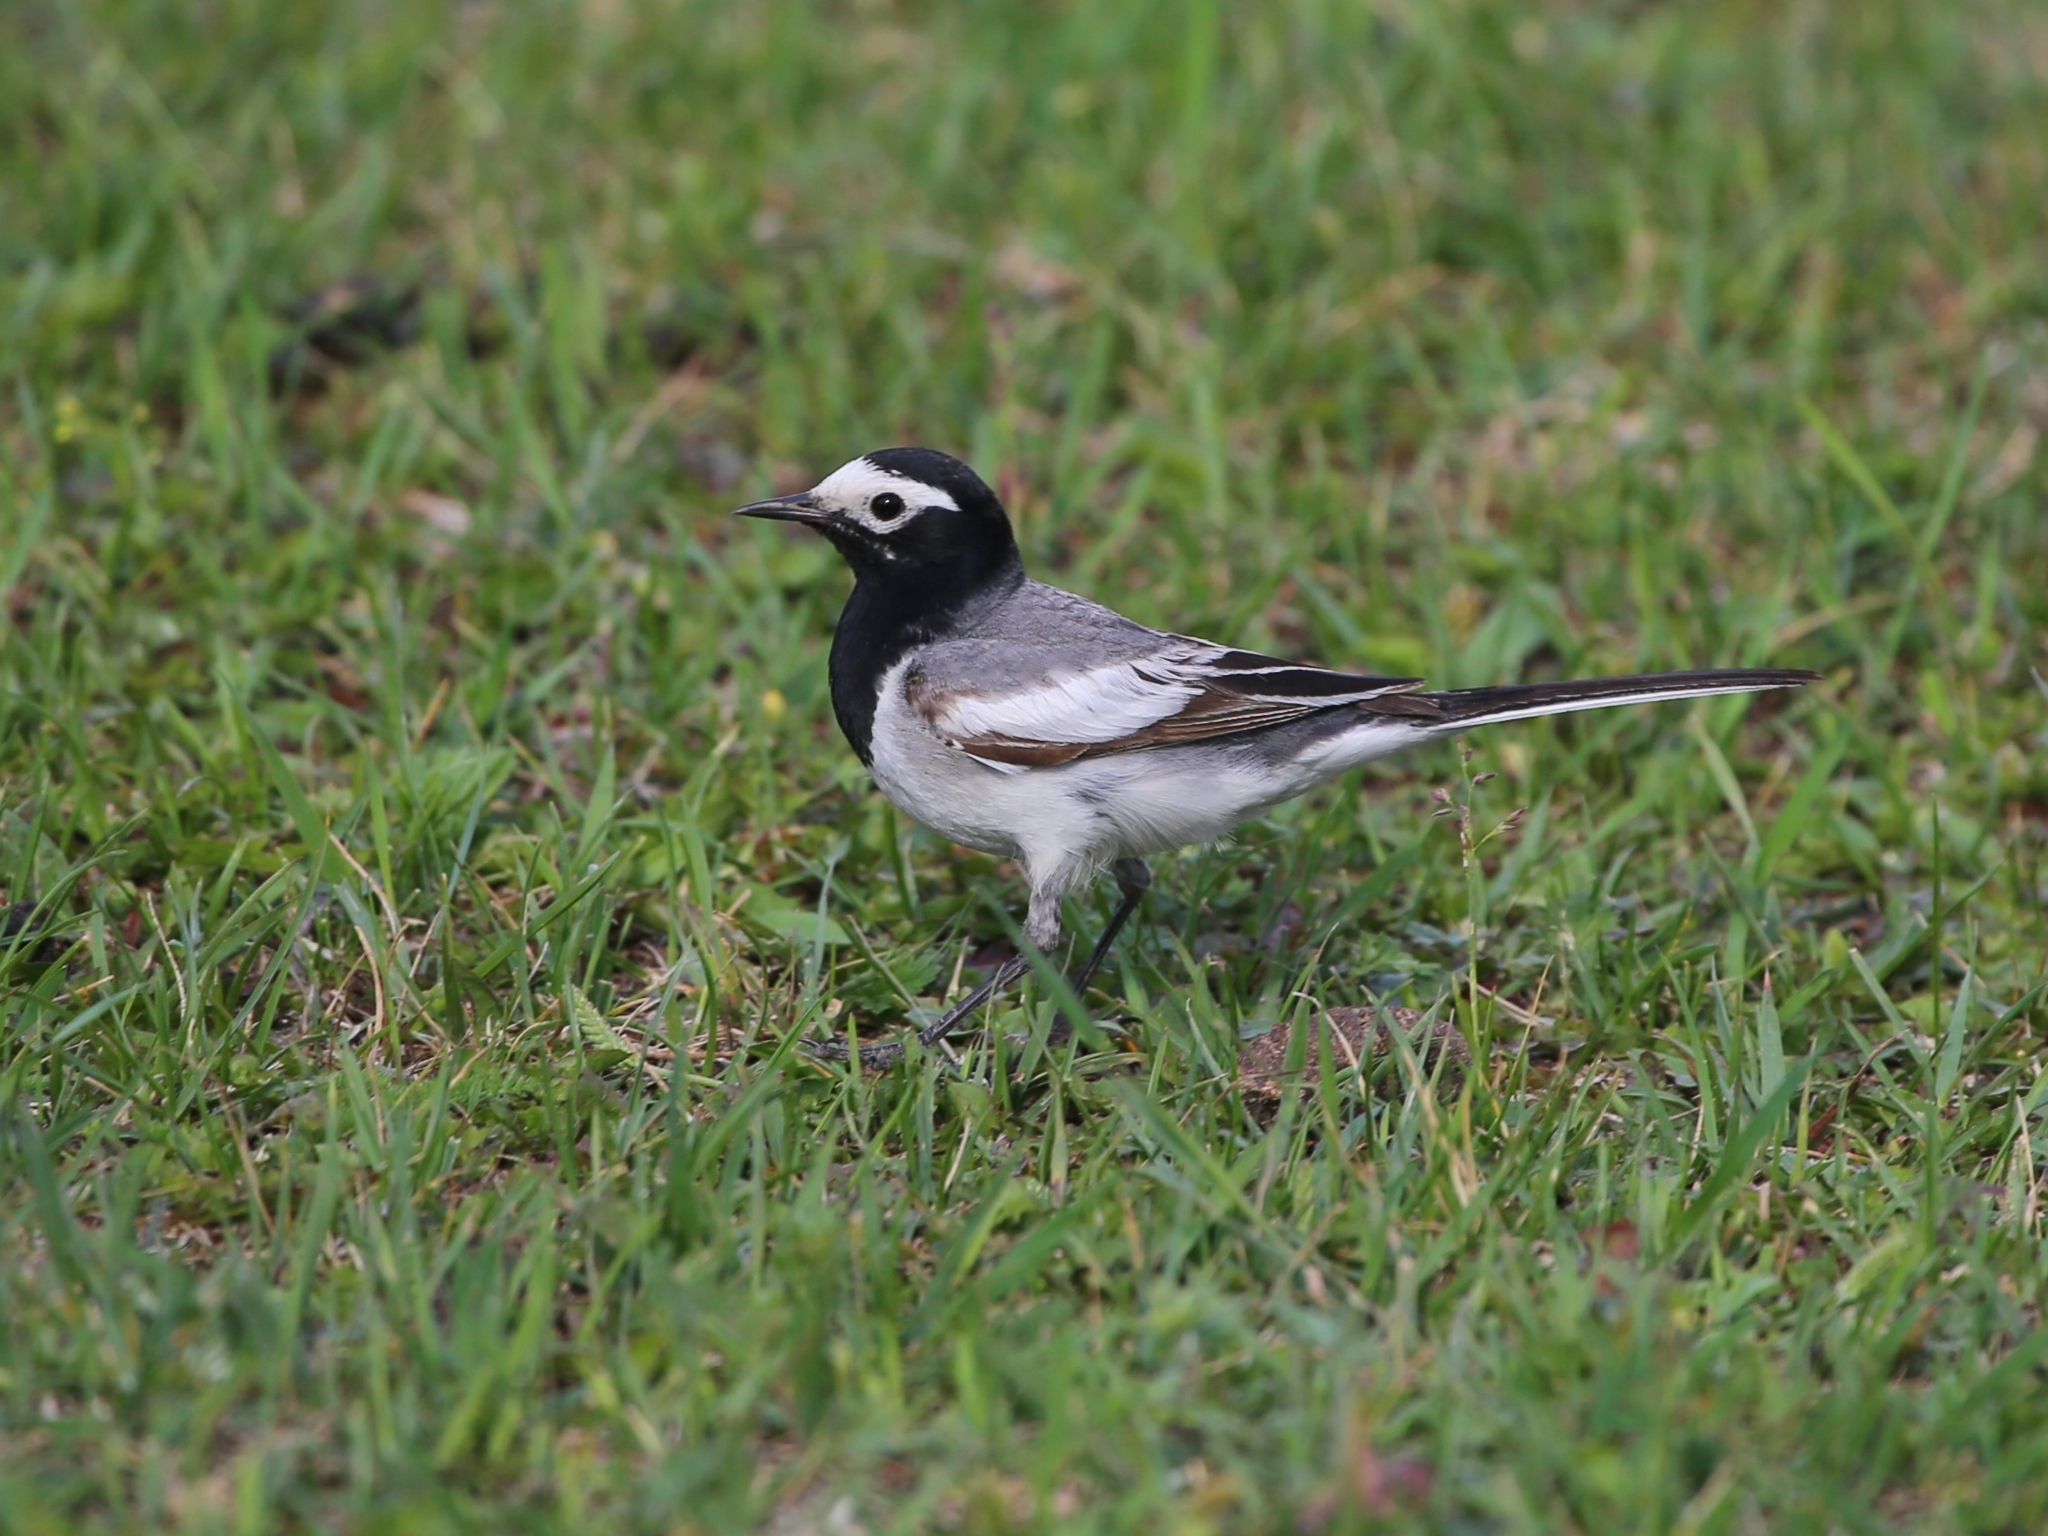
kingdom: Animalia
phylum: Chordata
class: Aves
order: Passeriformes
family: Motacillidae
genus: Motacilla
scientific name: Motacilla alba
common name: White wagtail
